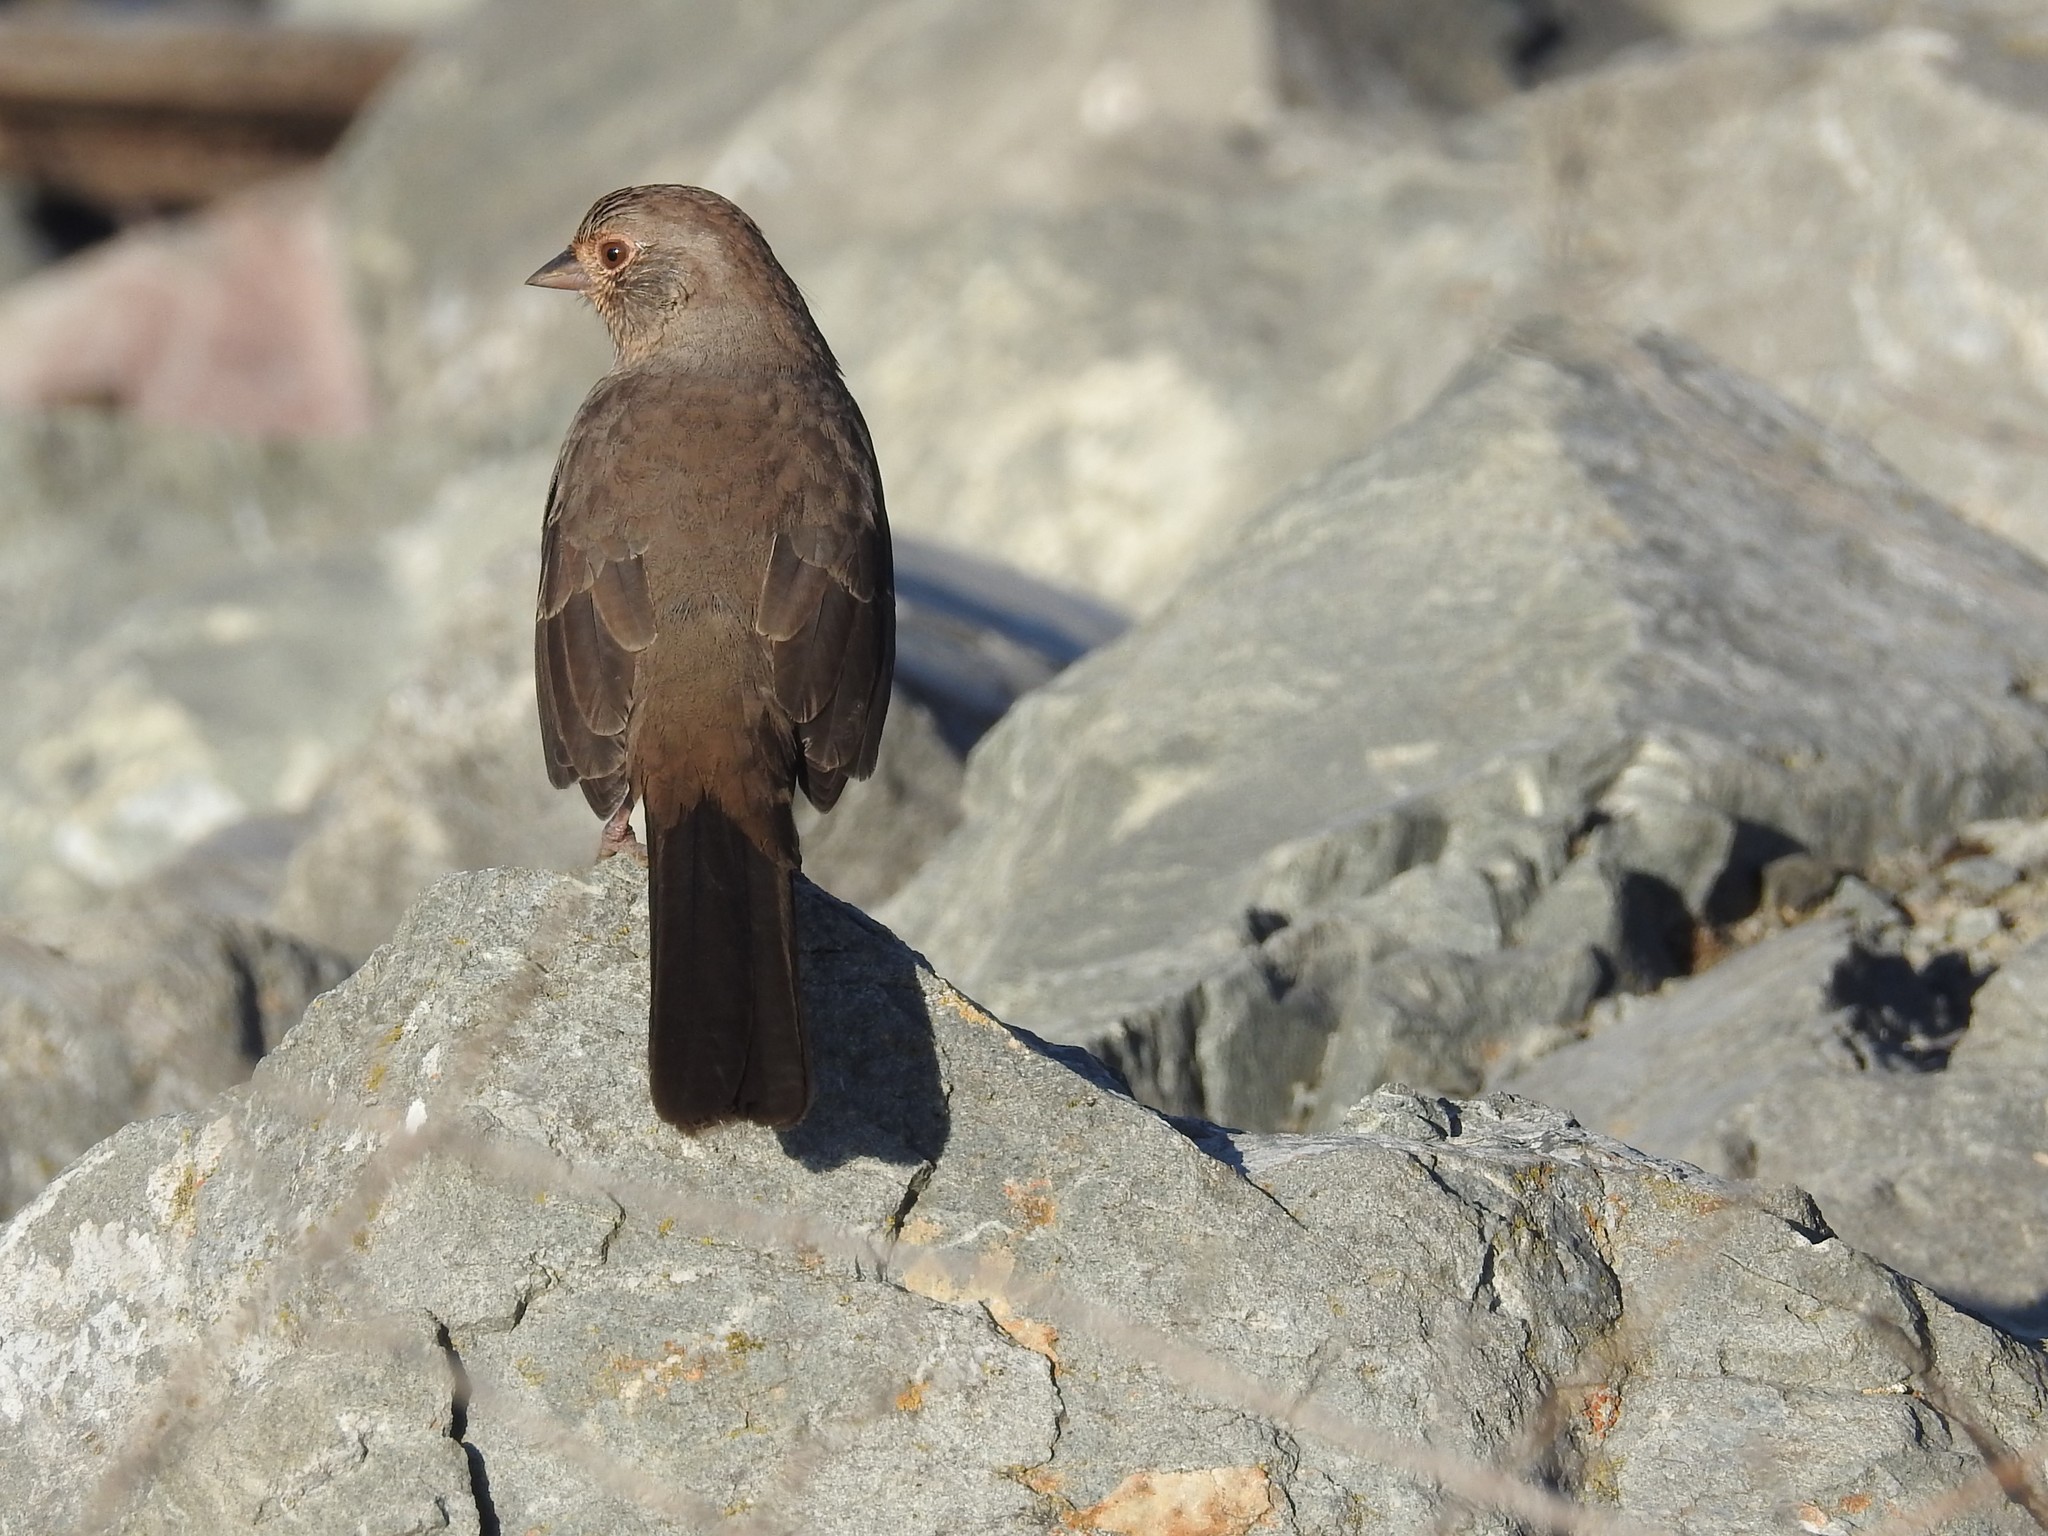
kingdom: Animalia
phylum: Chordata
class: Aves
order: Passeriformes
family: Passerellidae
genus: Melozone
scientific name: Melozone crissalis
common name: California towhee
